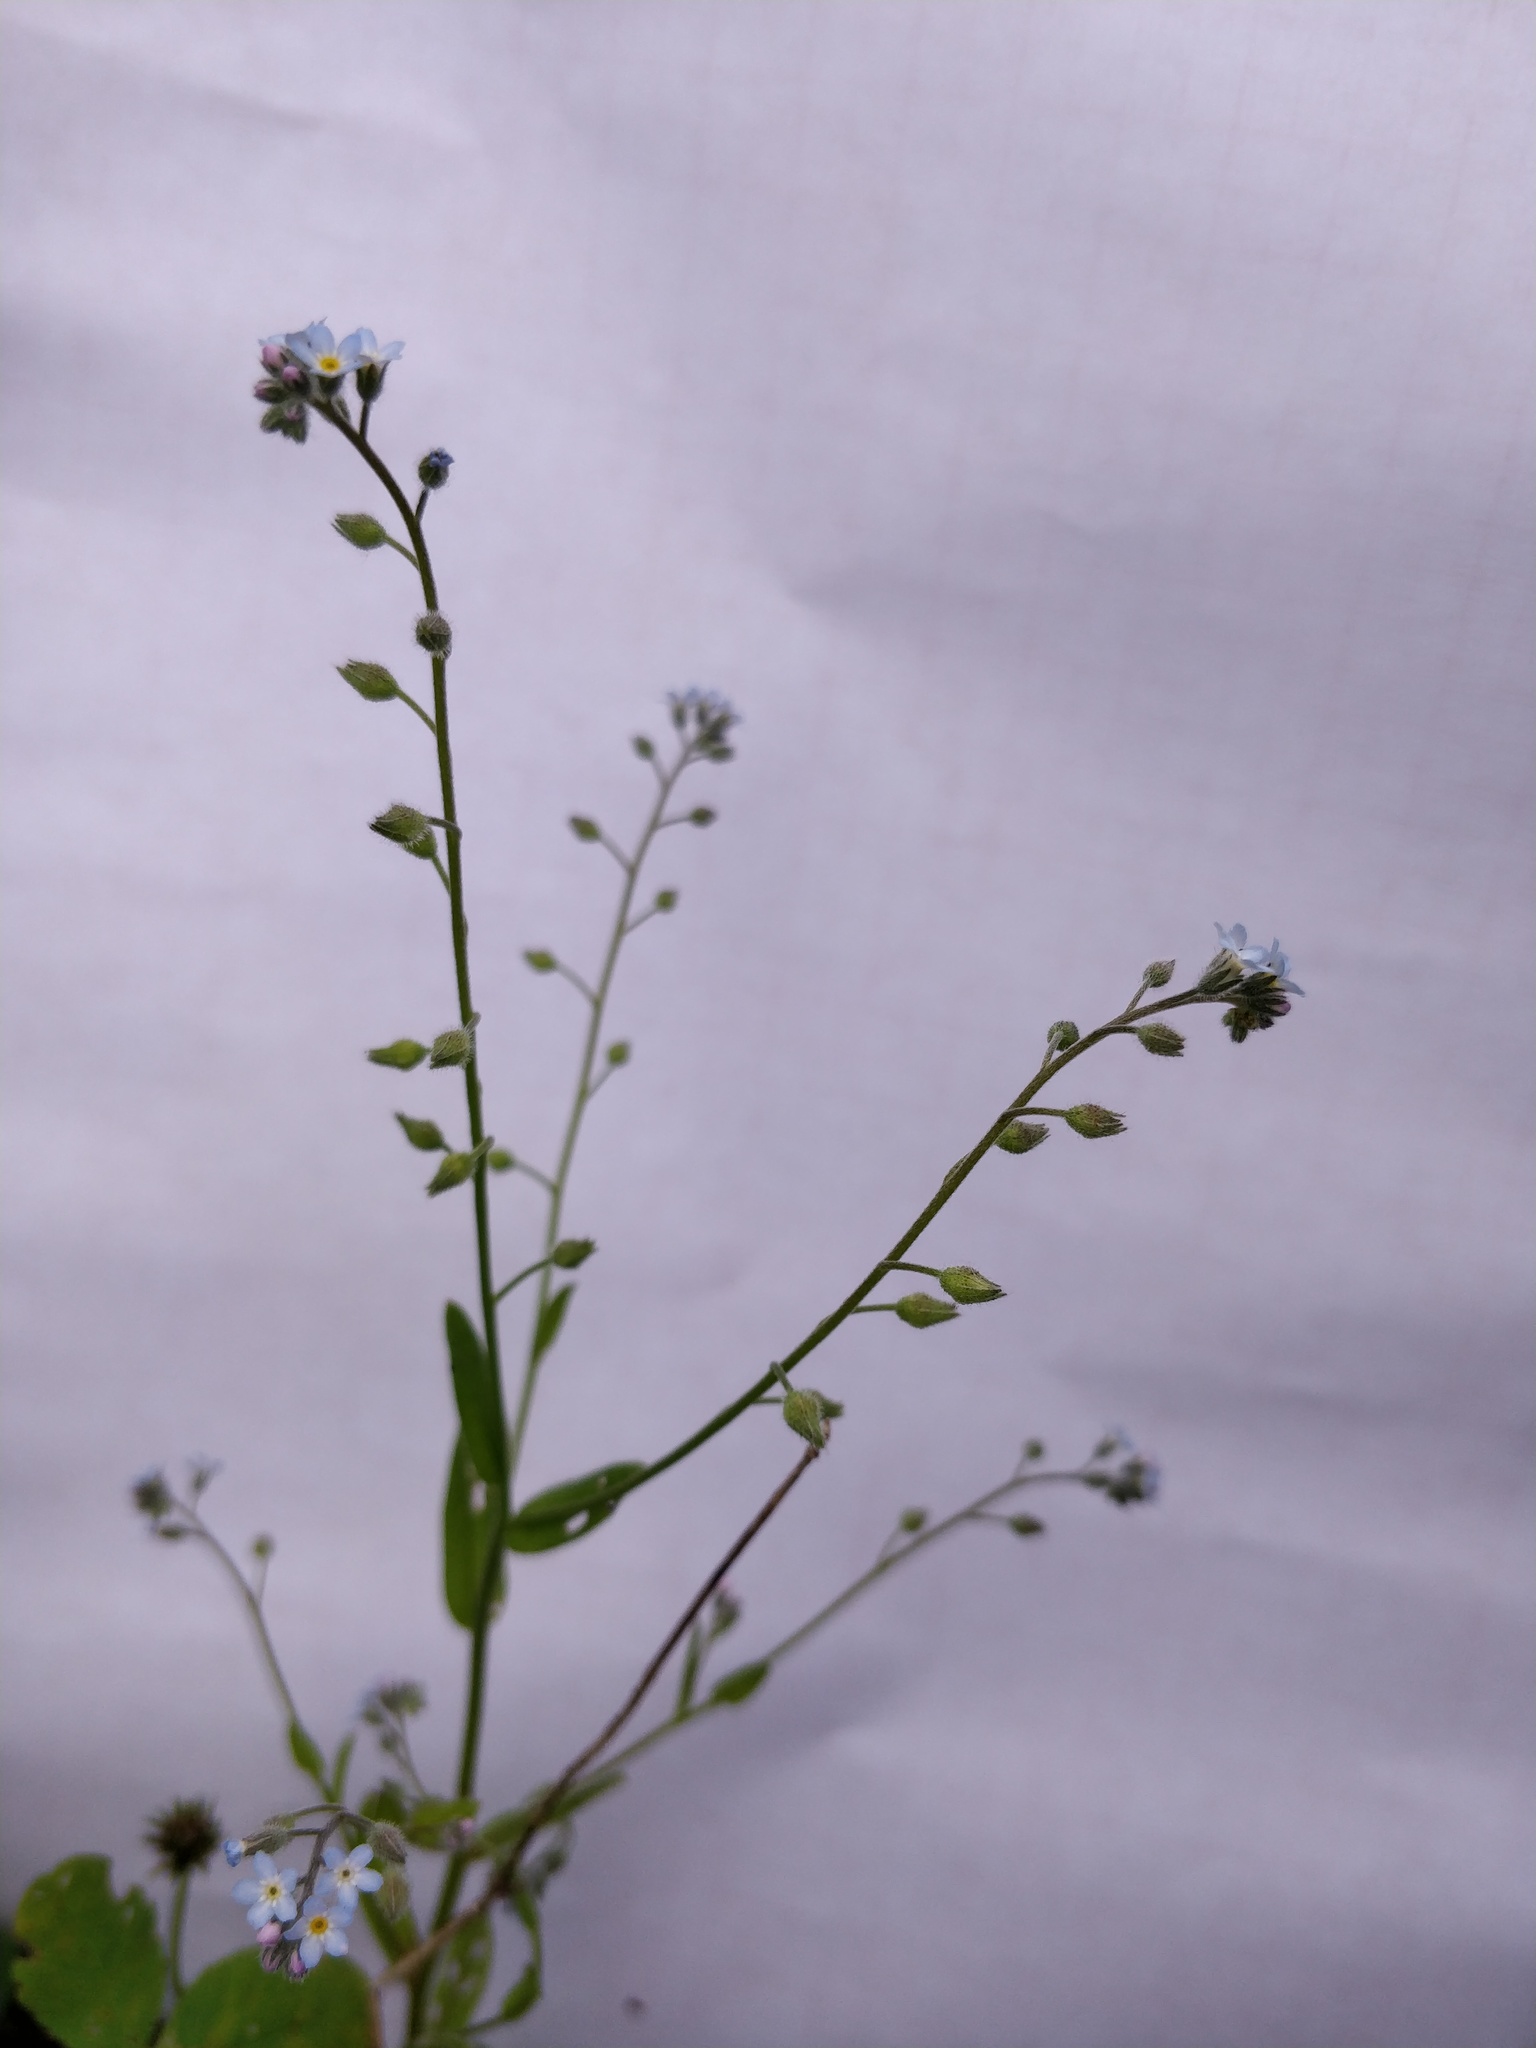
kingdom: Plantae
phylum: Tracheophyta
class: Magnoliopsida
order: Boraginales
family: Boraginaceae
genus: Myosotis
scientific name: Myosotis arvensis
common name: Field forget-me-not
